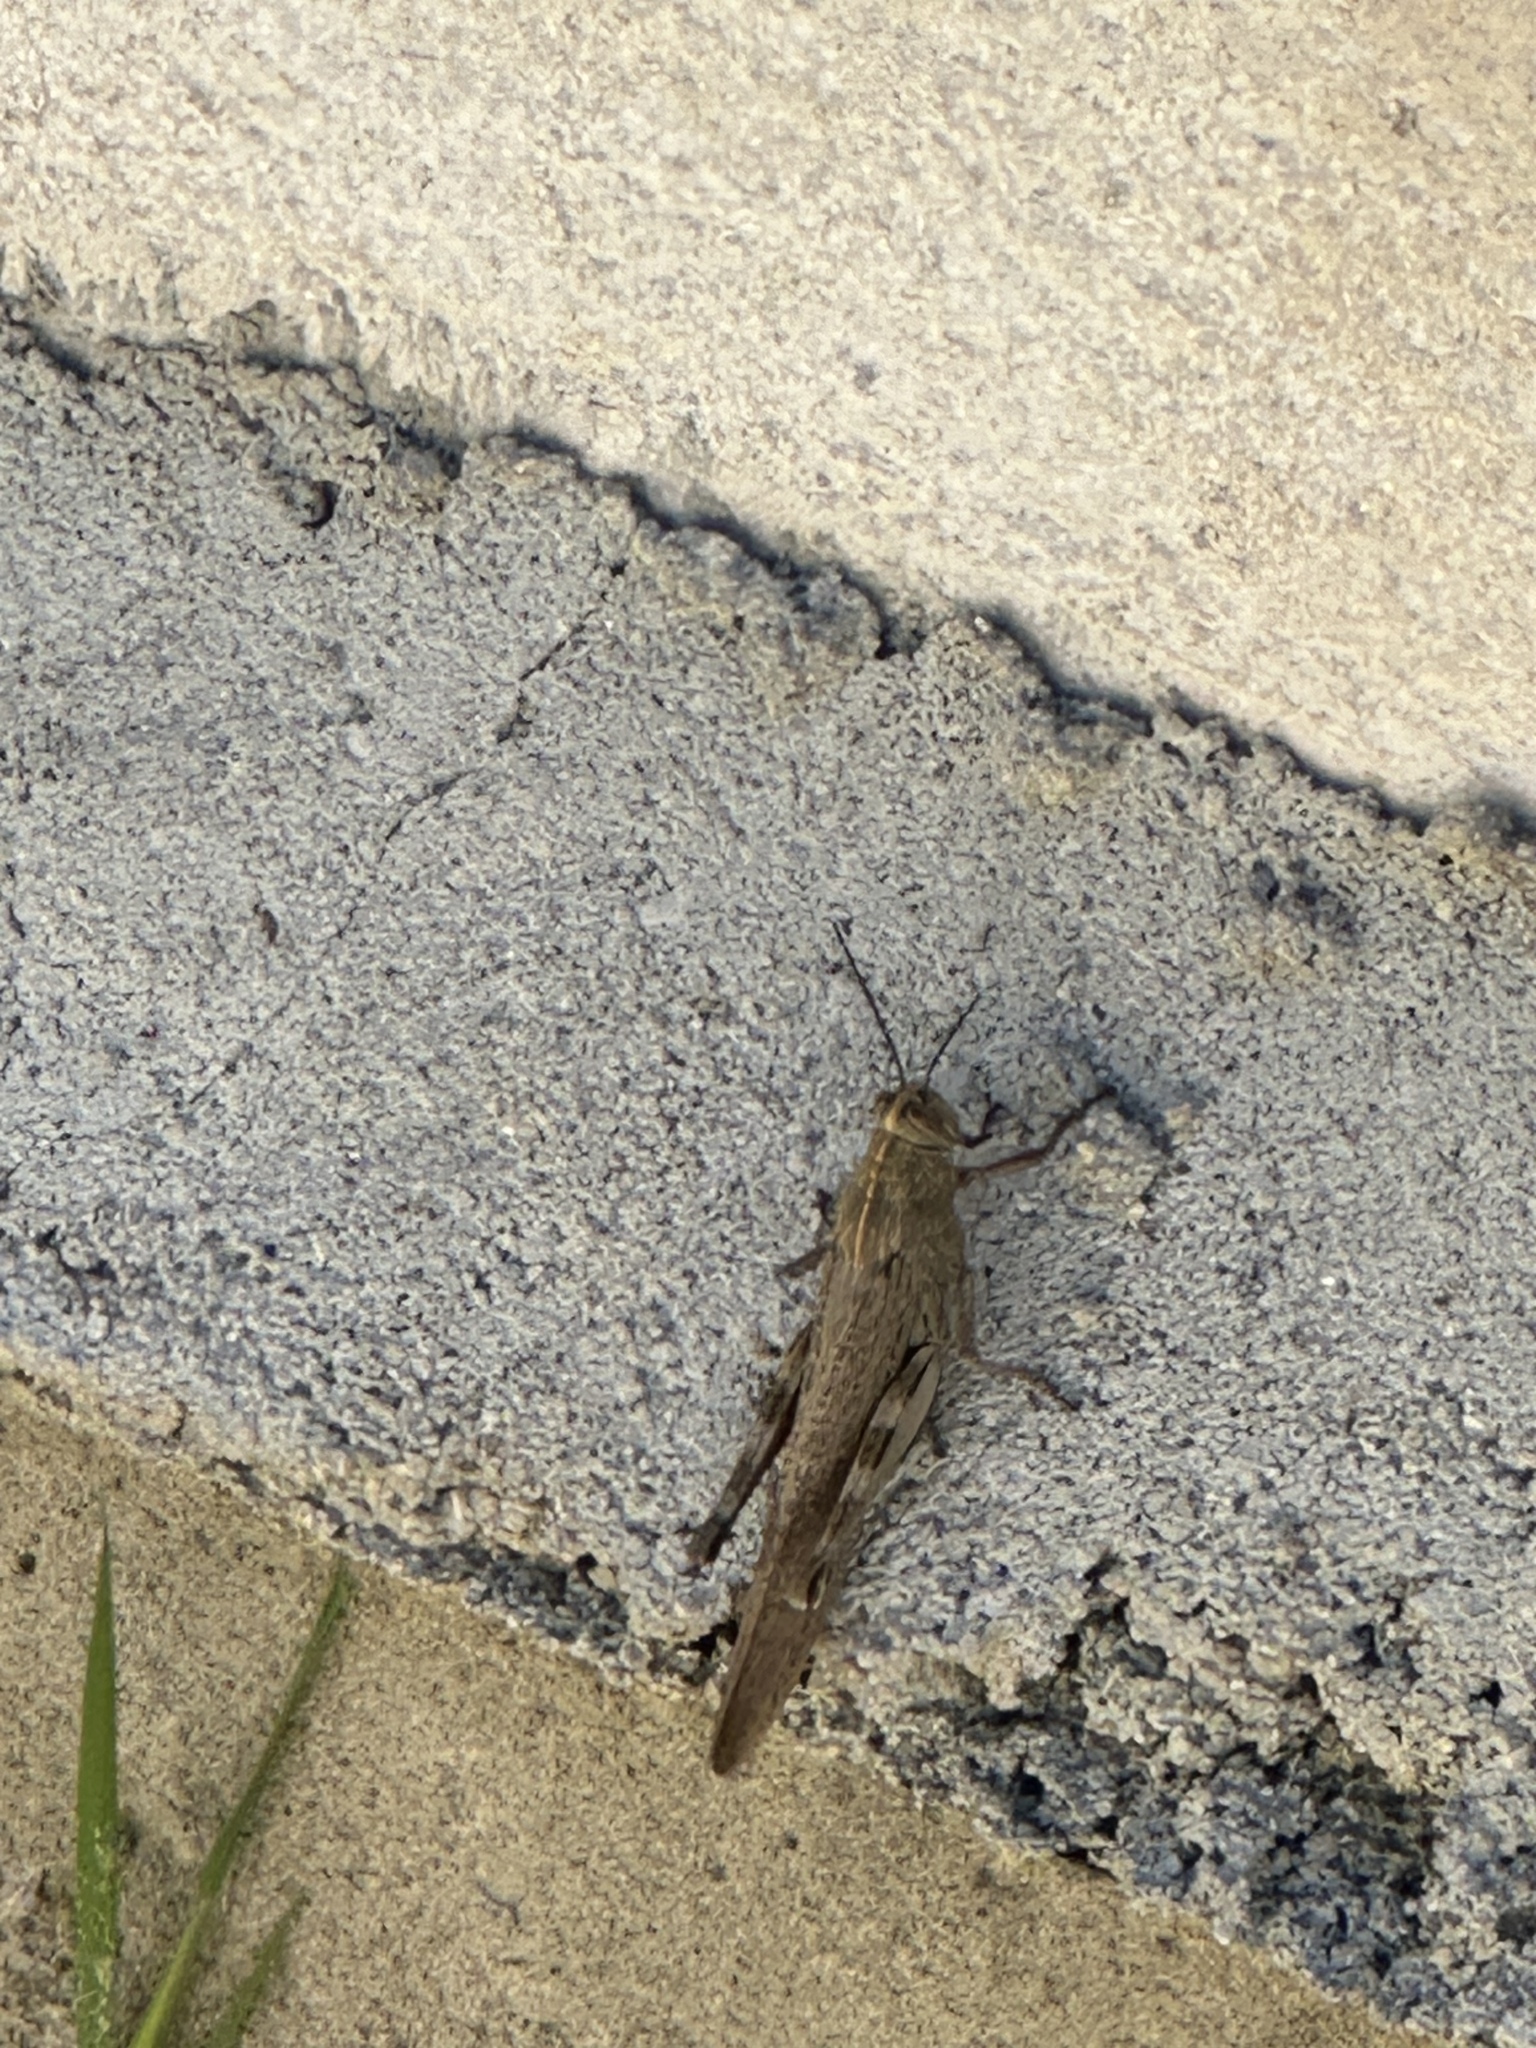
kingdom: Animalia
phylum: Arthropoda
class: Insecta
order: Orthoptera
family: Acrididae
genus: Anacridium
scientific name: Anacridium aegyptium
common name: Egyptian grasshopper
